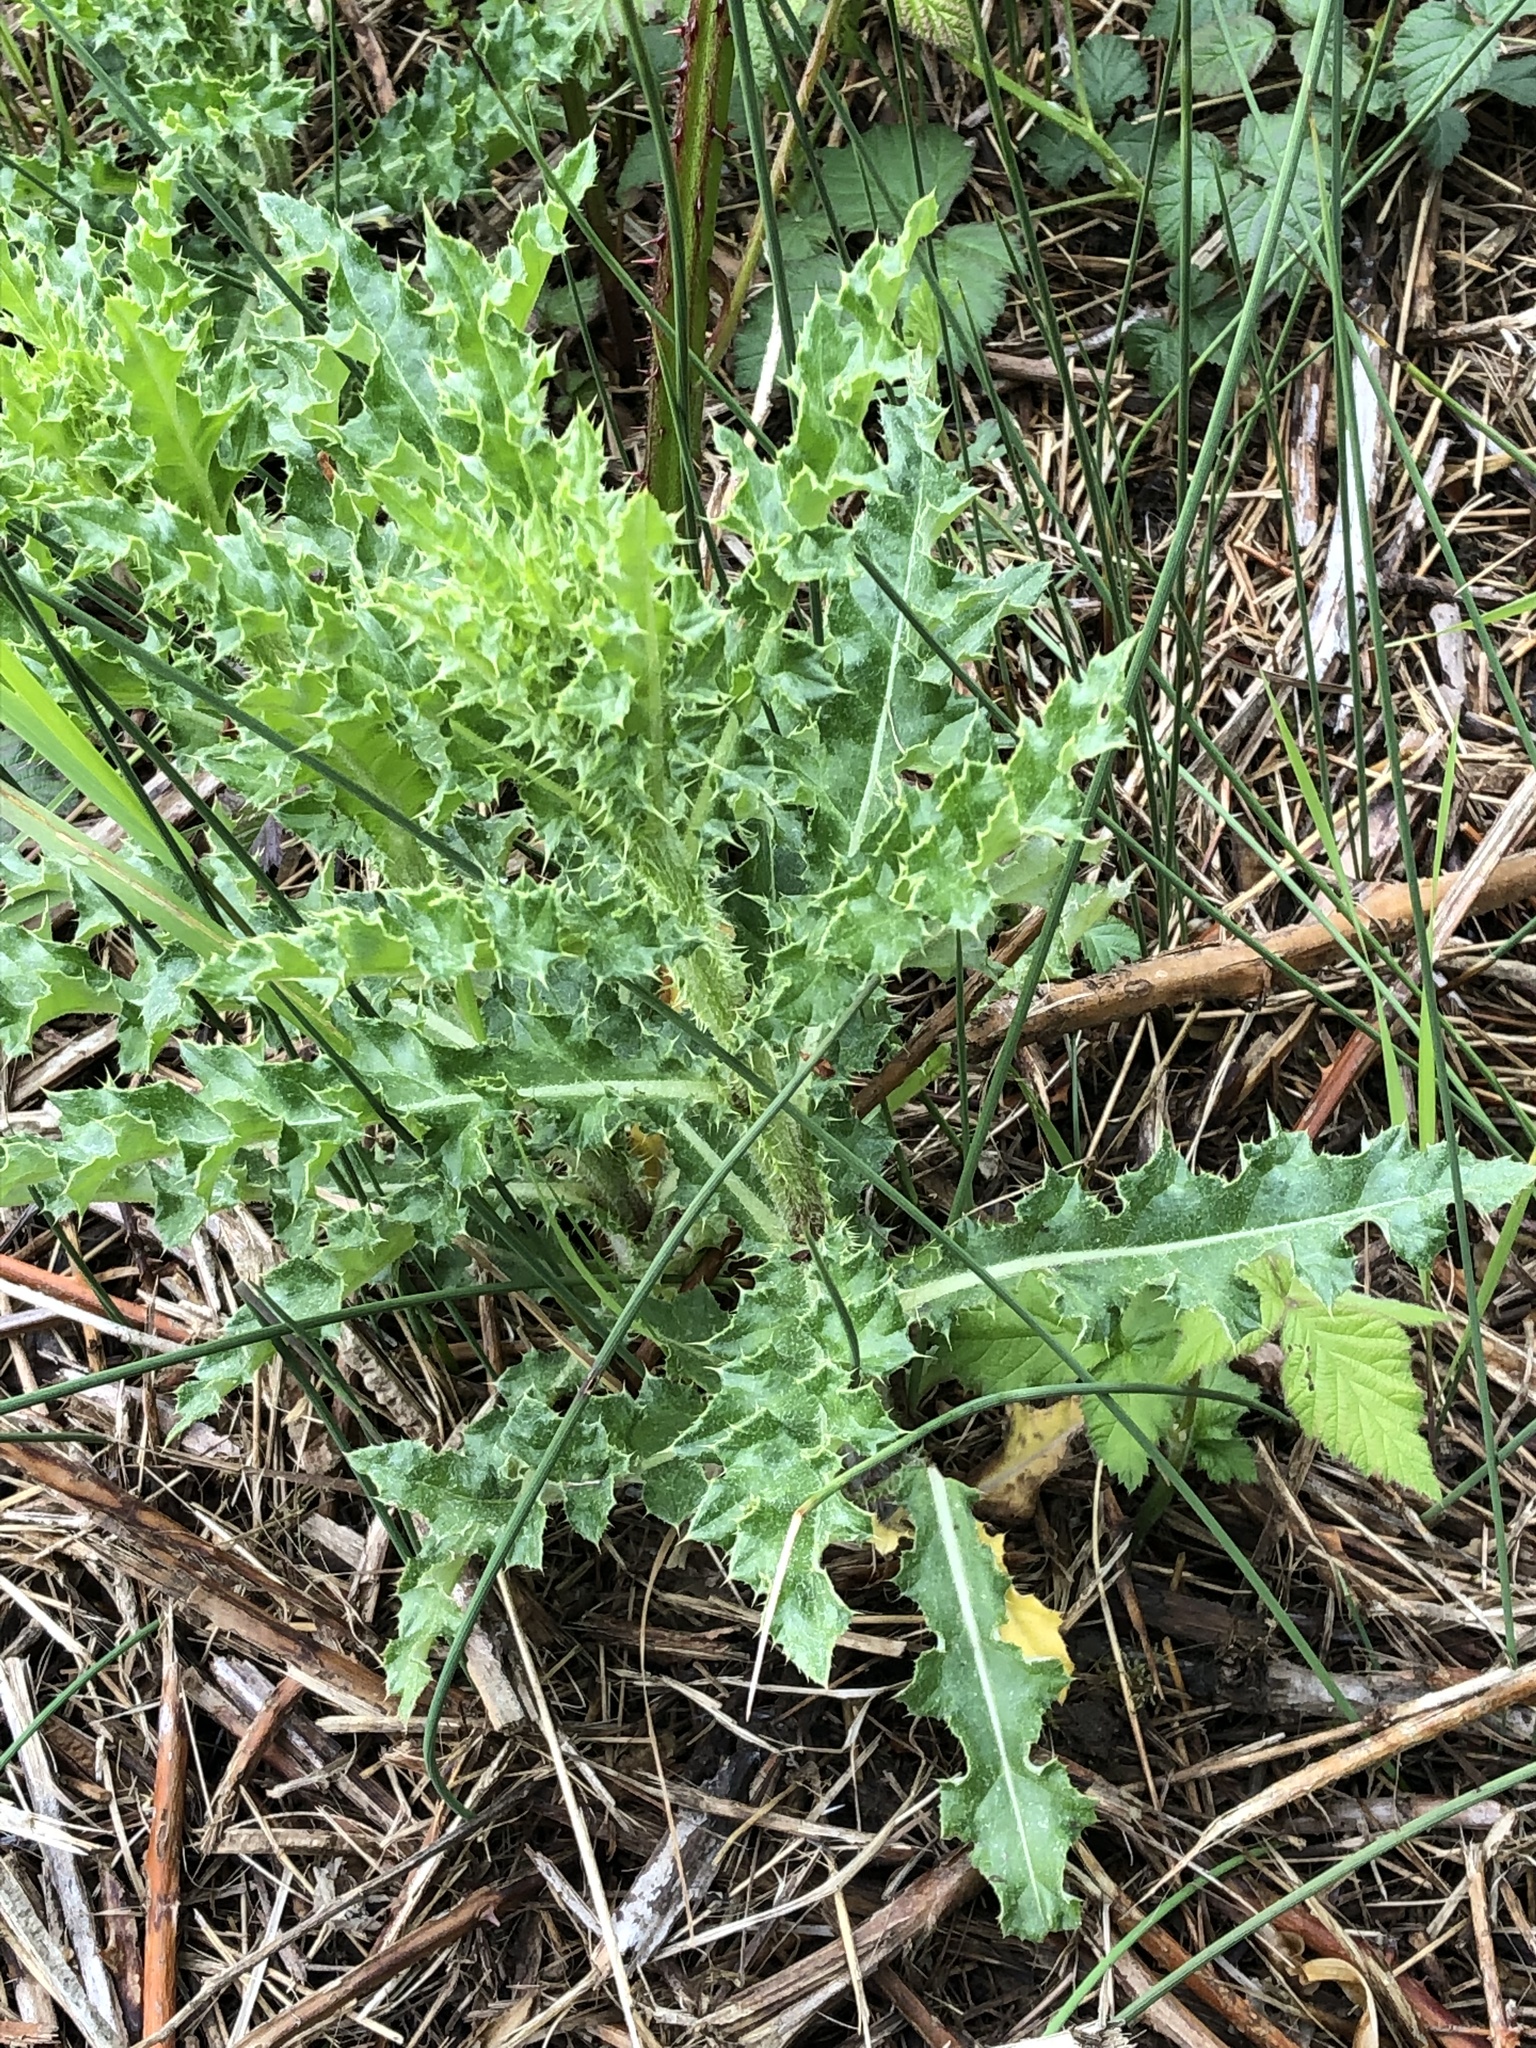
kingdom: Plantae
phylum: Tracheophyta
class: Magnoliopsida
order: Asterales
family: Asteraceae
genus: Cirsium
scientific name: Cirsium arvense
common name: Creeping thistle
